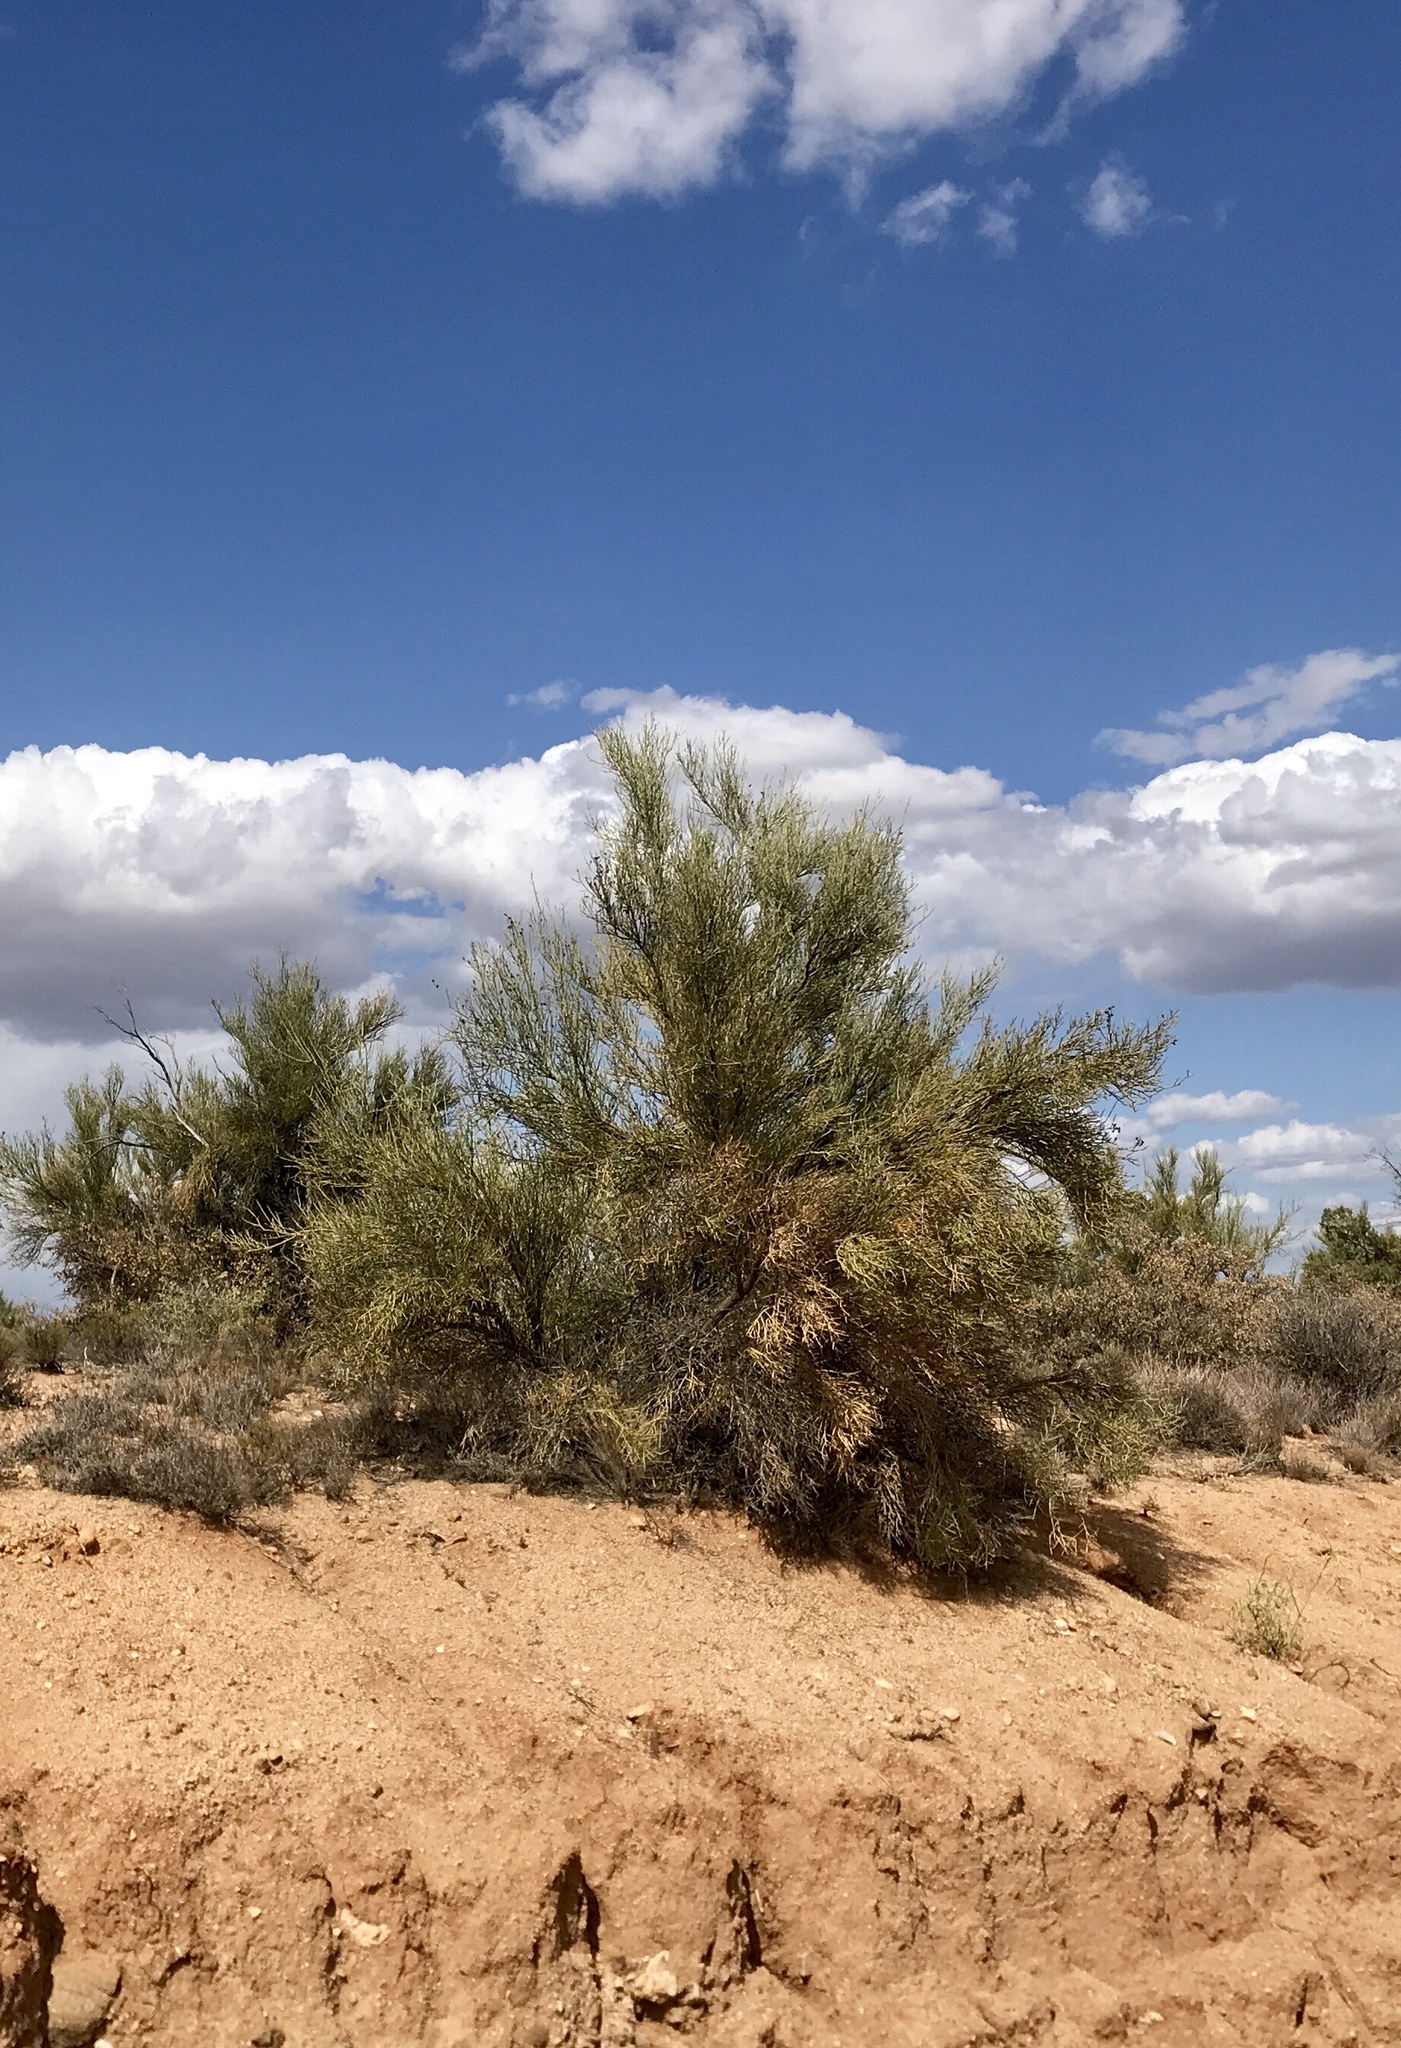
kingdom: Plantae
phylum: Tracheophyta
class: Magnoliopsida
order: Celastrales
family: Celastraceae
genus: Canotia
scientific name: Canotia holacantha
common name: Crucifixion thorns
